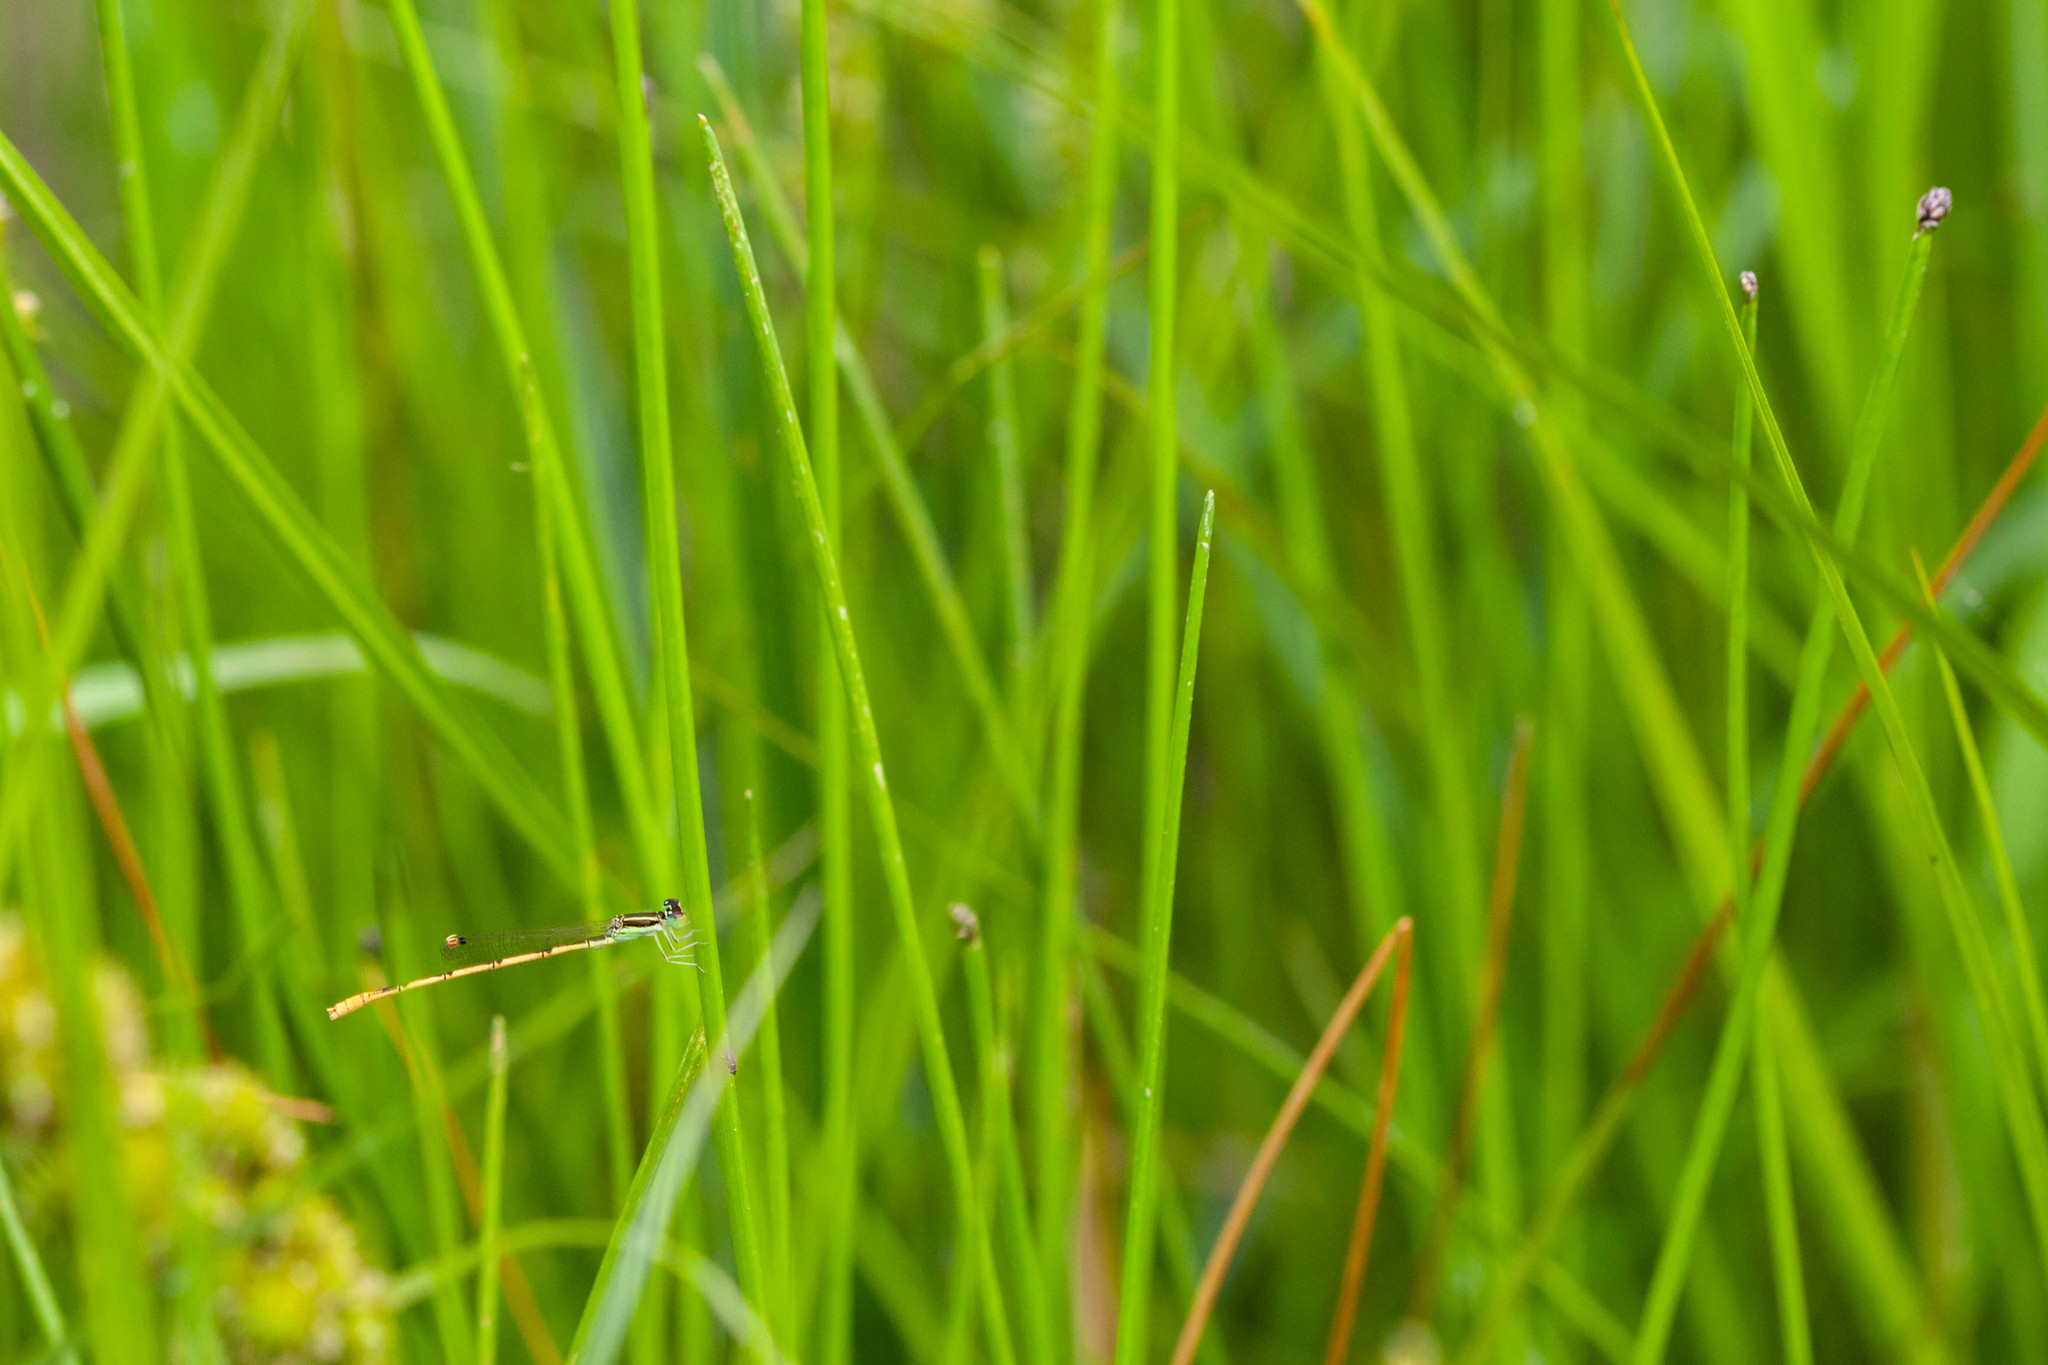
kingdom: Animalia
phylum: Arthropoda
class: Insecta
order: Odonata
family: Coenagrionidae
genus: Ischnura
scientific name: Ischnura hastata
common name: Citrine forktail
